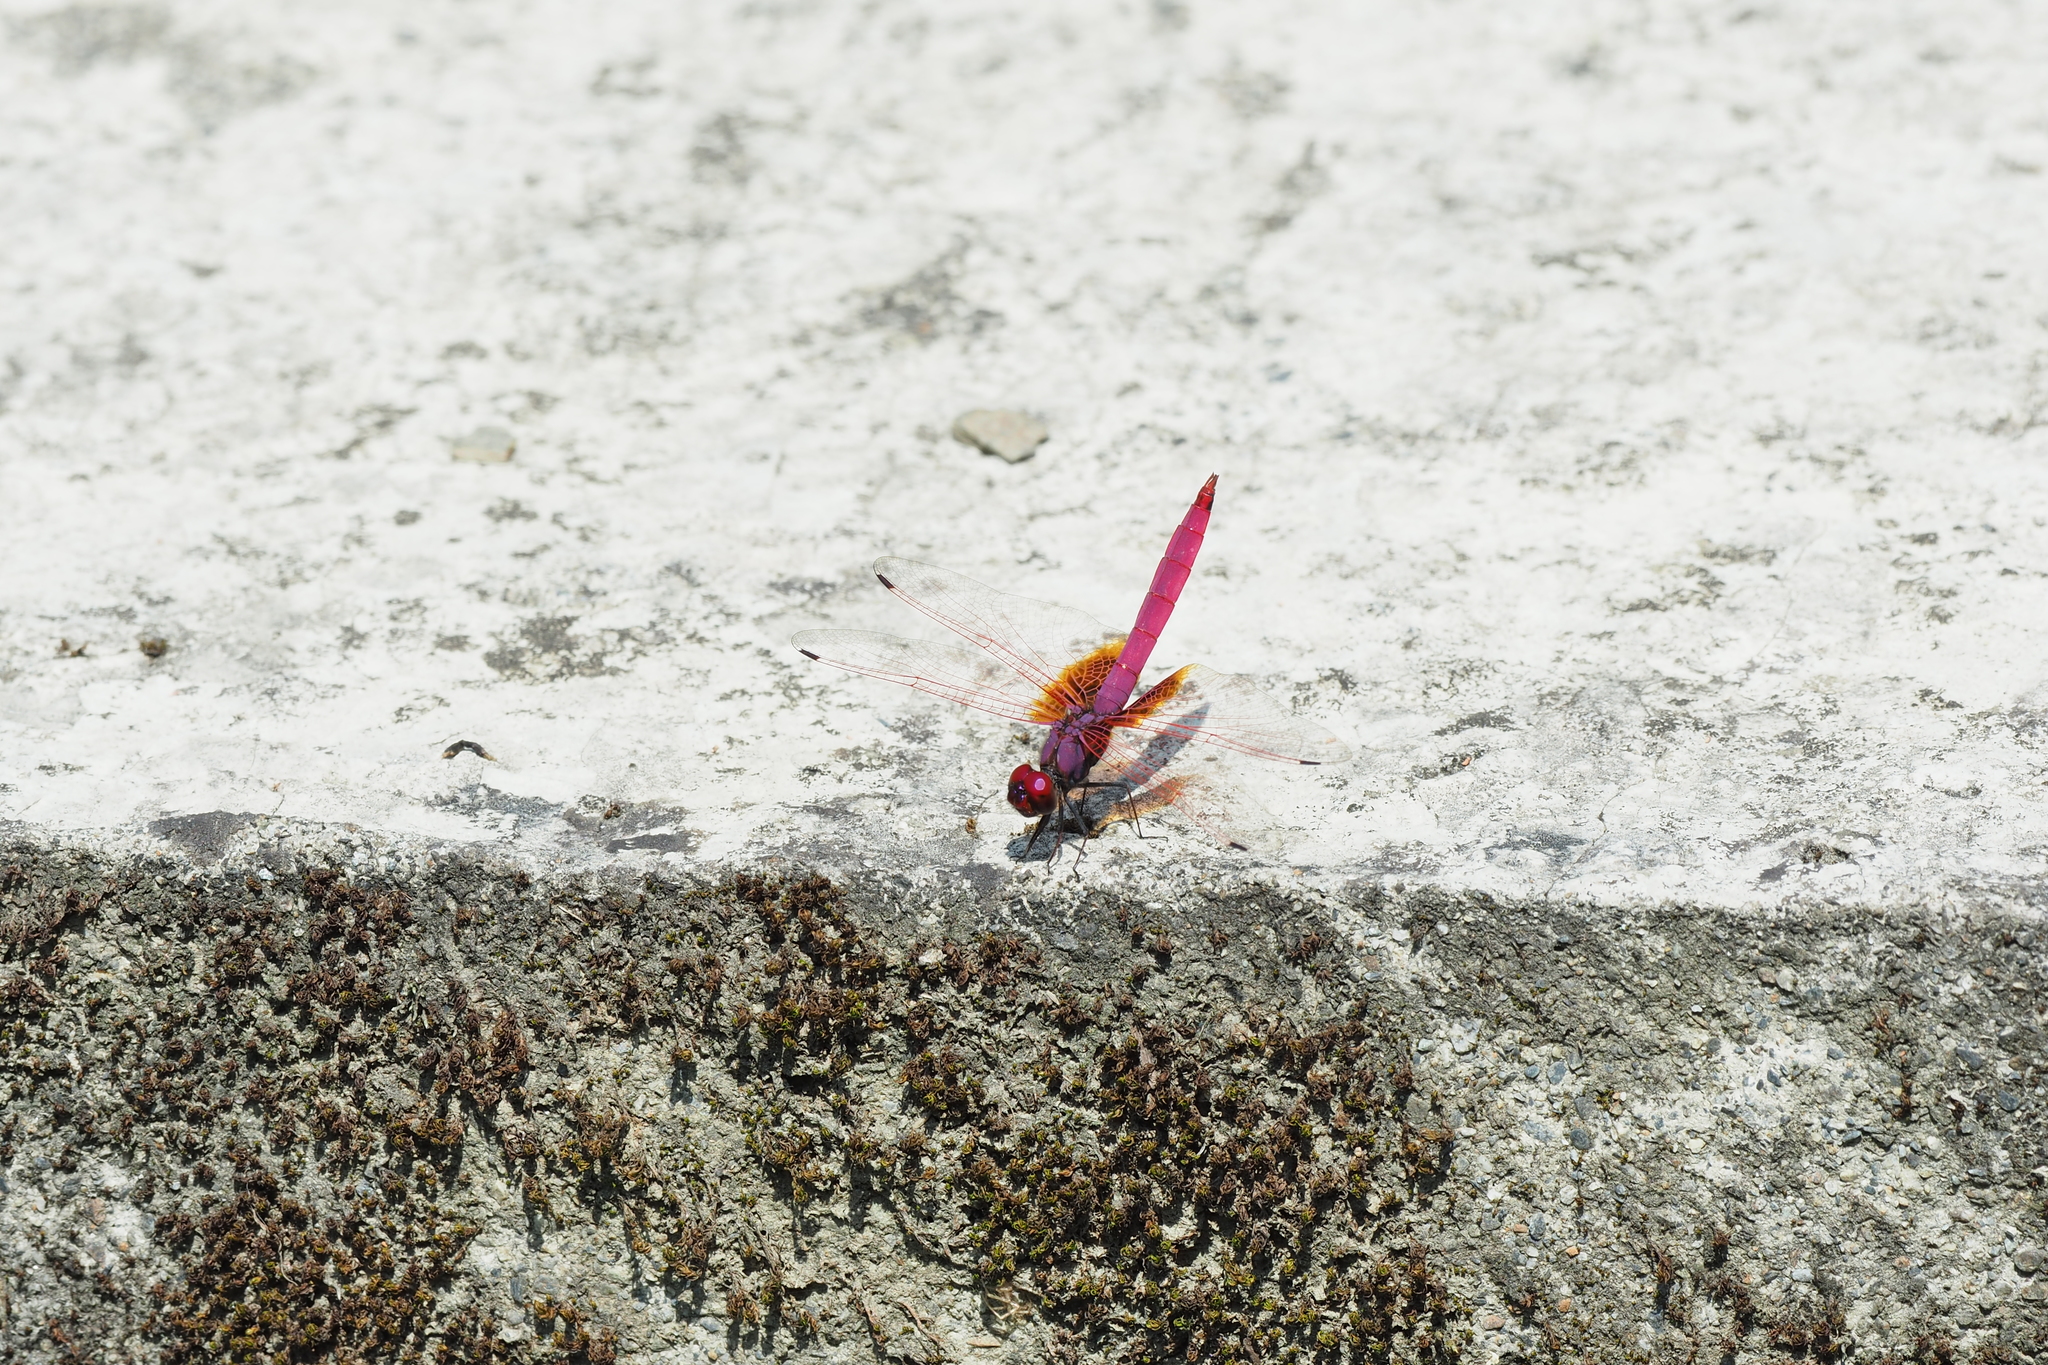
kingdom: Animalia
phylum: Arthropoda
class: Insecta
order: Odonata
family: Libellulidae
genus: Trithemis
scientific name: Trithemis aurora
